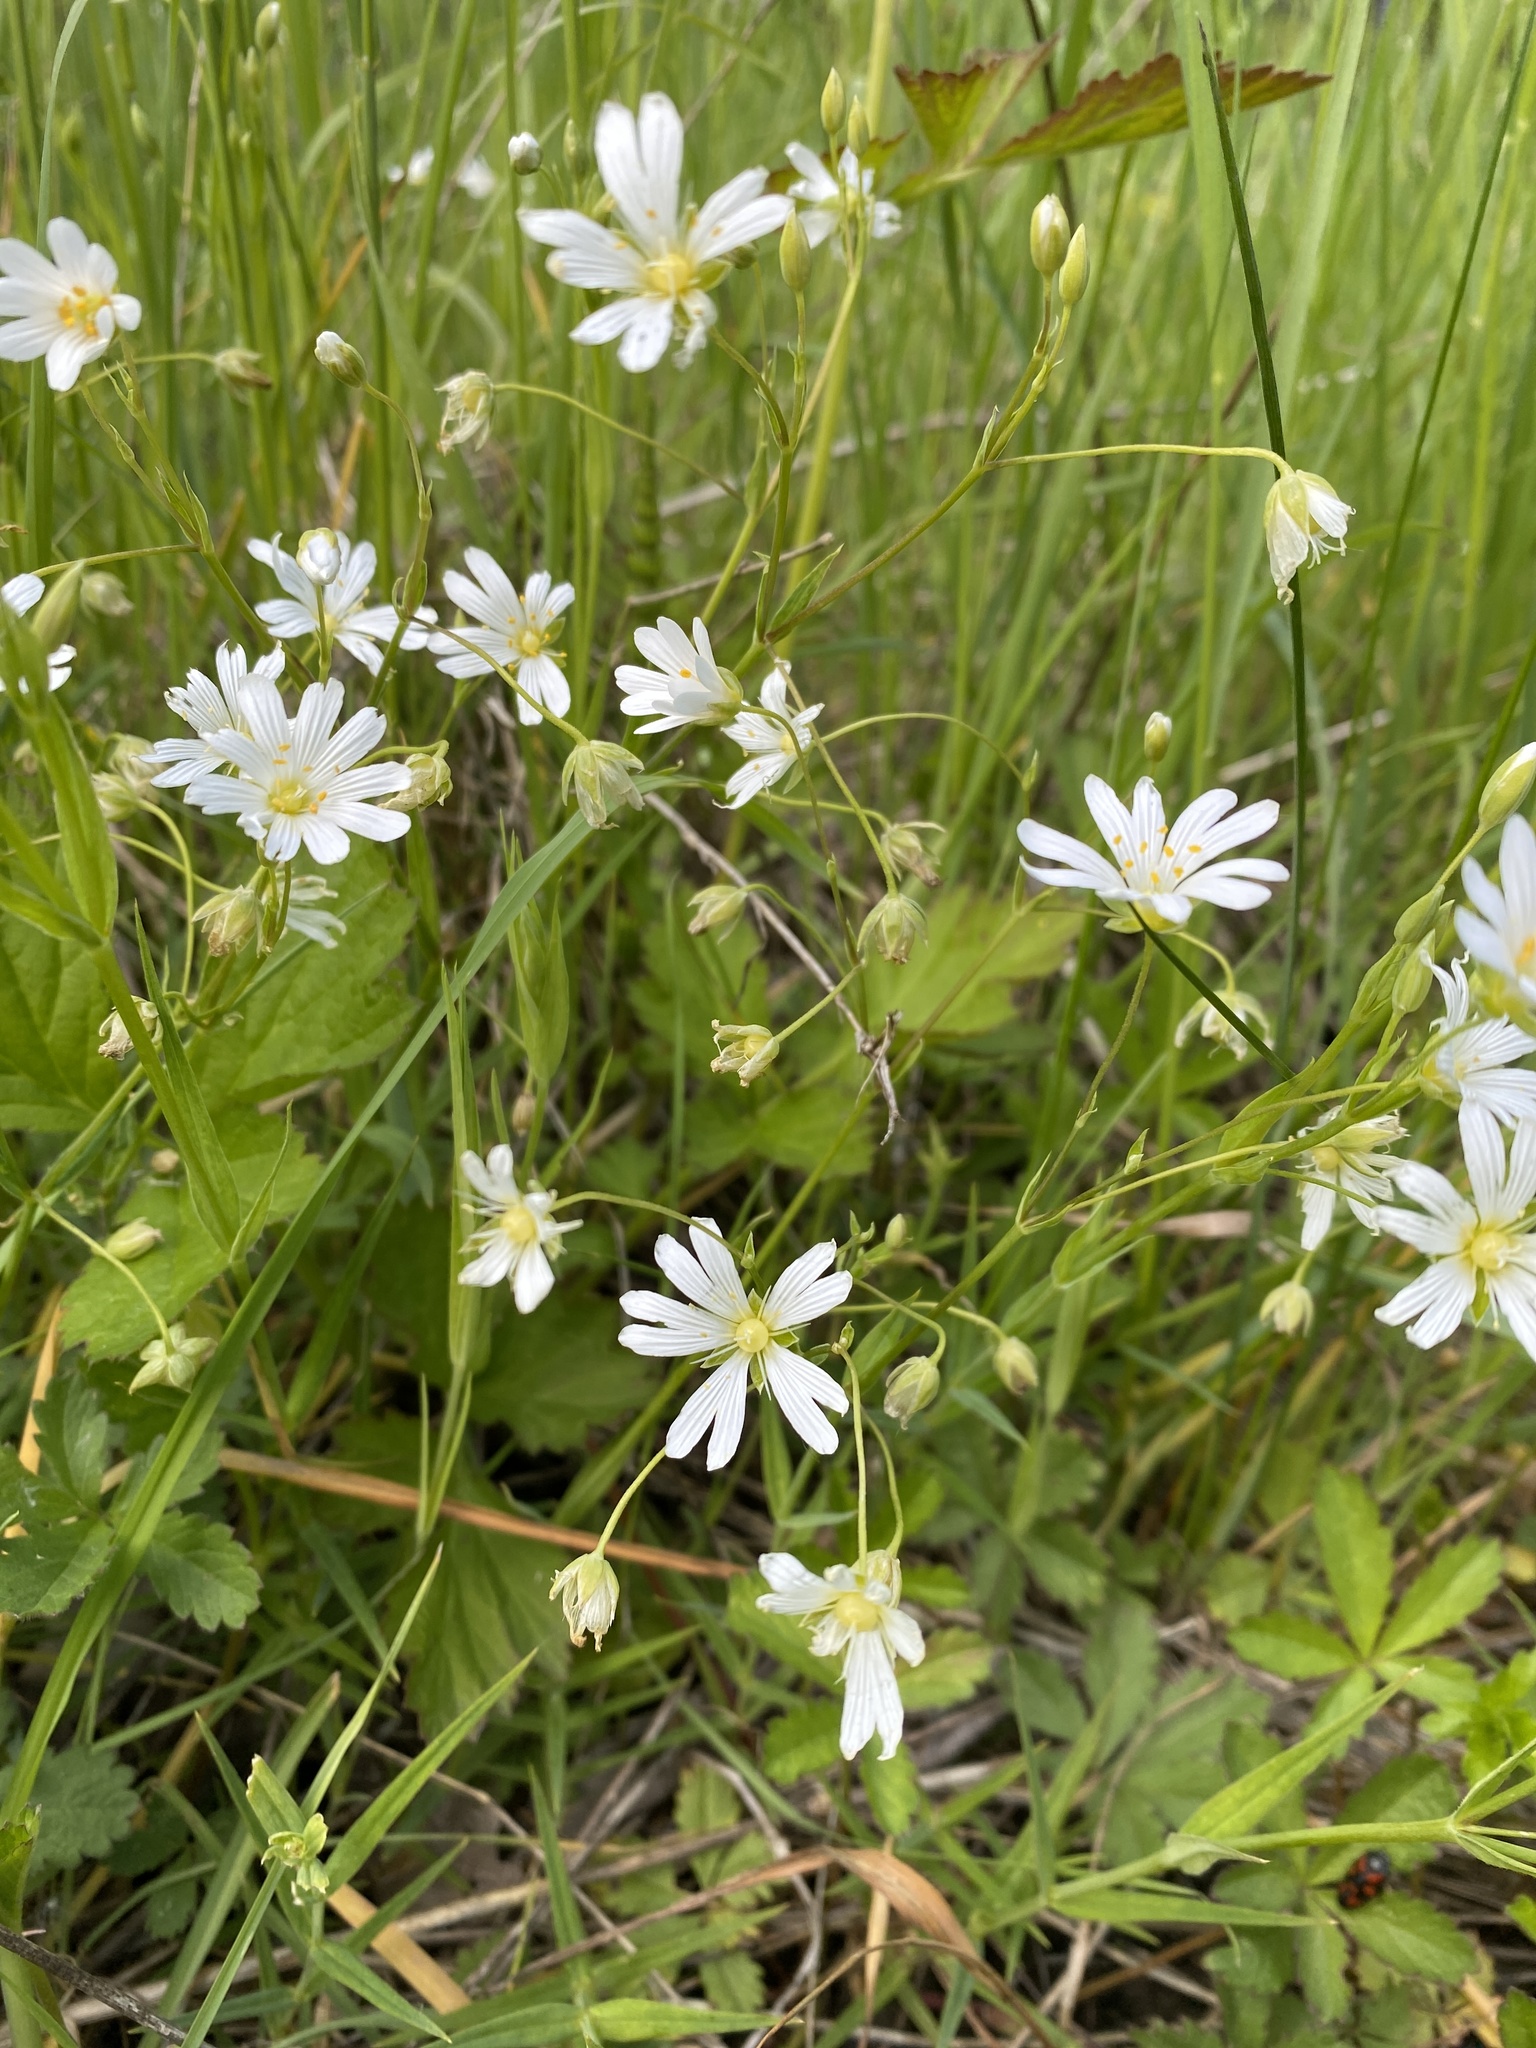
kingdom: Plantae
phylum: Tracheophyta
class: Magnoliopsida
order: Caryophyllales
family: Caryophyllaceae
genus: Rabelera
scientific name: Rabelera holostea
